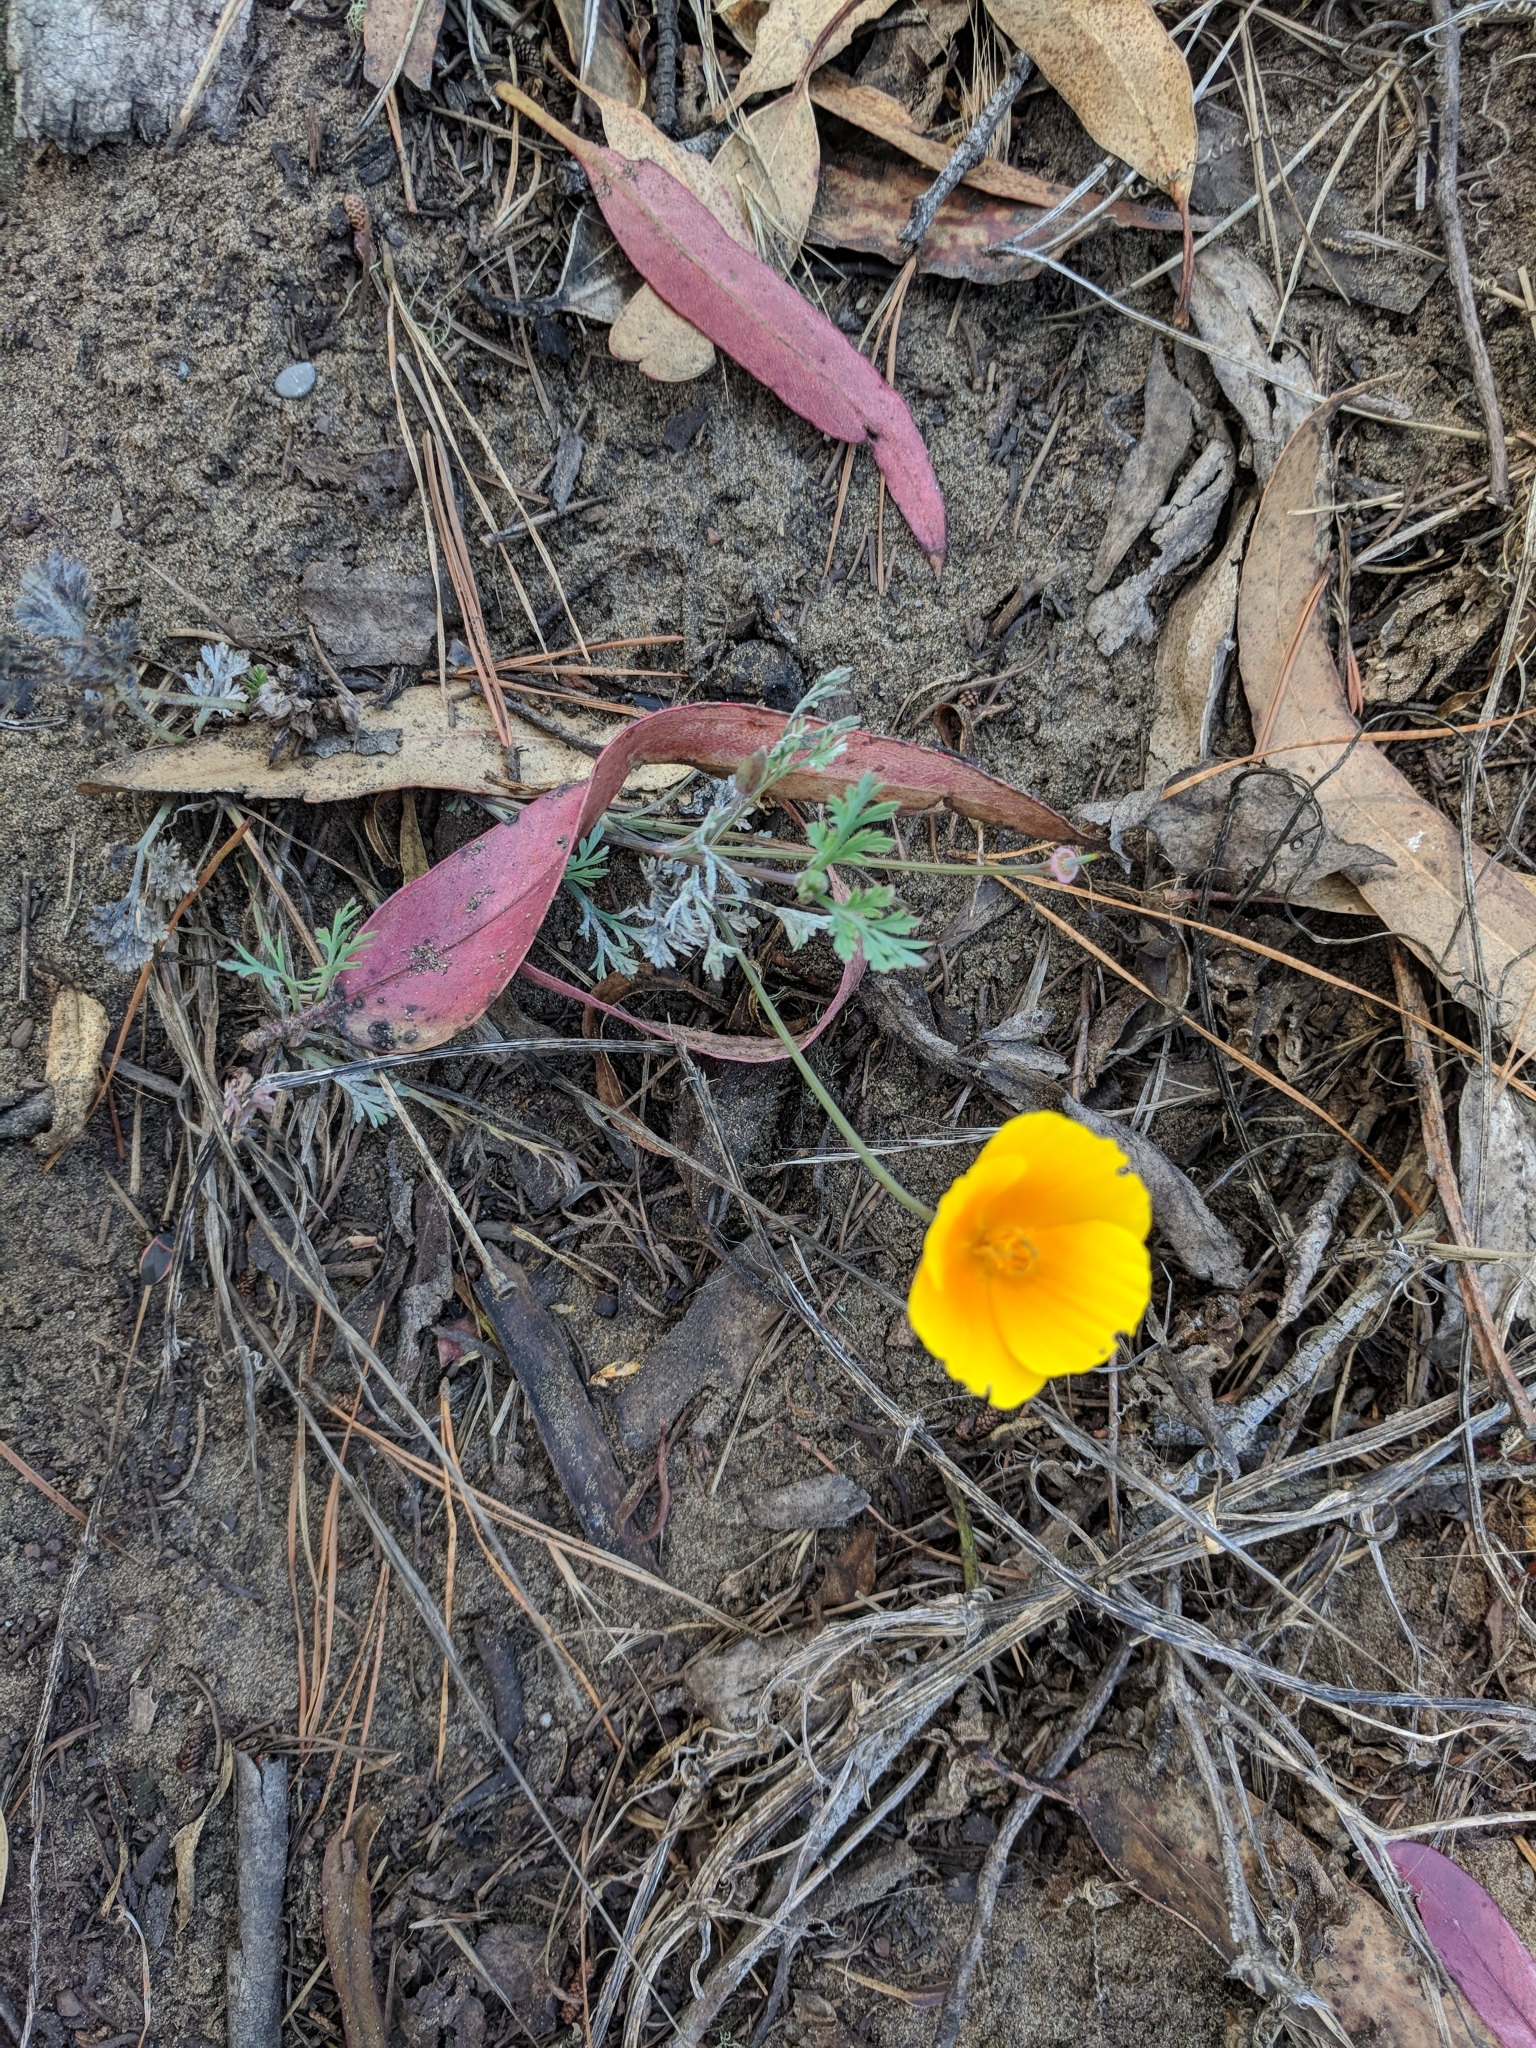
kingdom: Plantae
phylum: Tracheophyta
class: Magnoliopsida
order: Ranunculales
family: Papaveraceae
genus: Eschscholzia
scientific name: Eschscholzia californica
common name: California poppy
